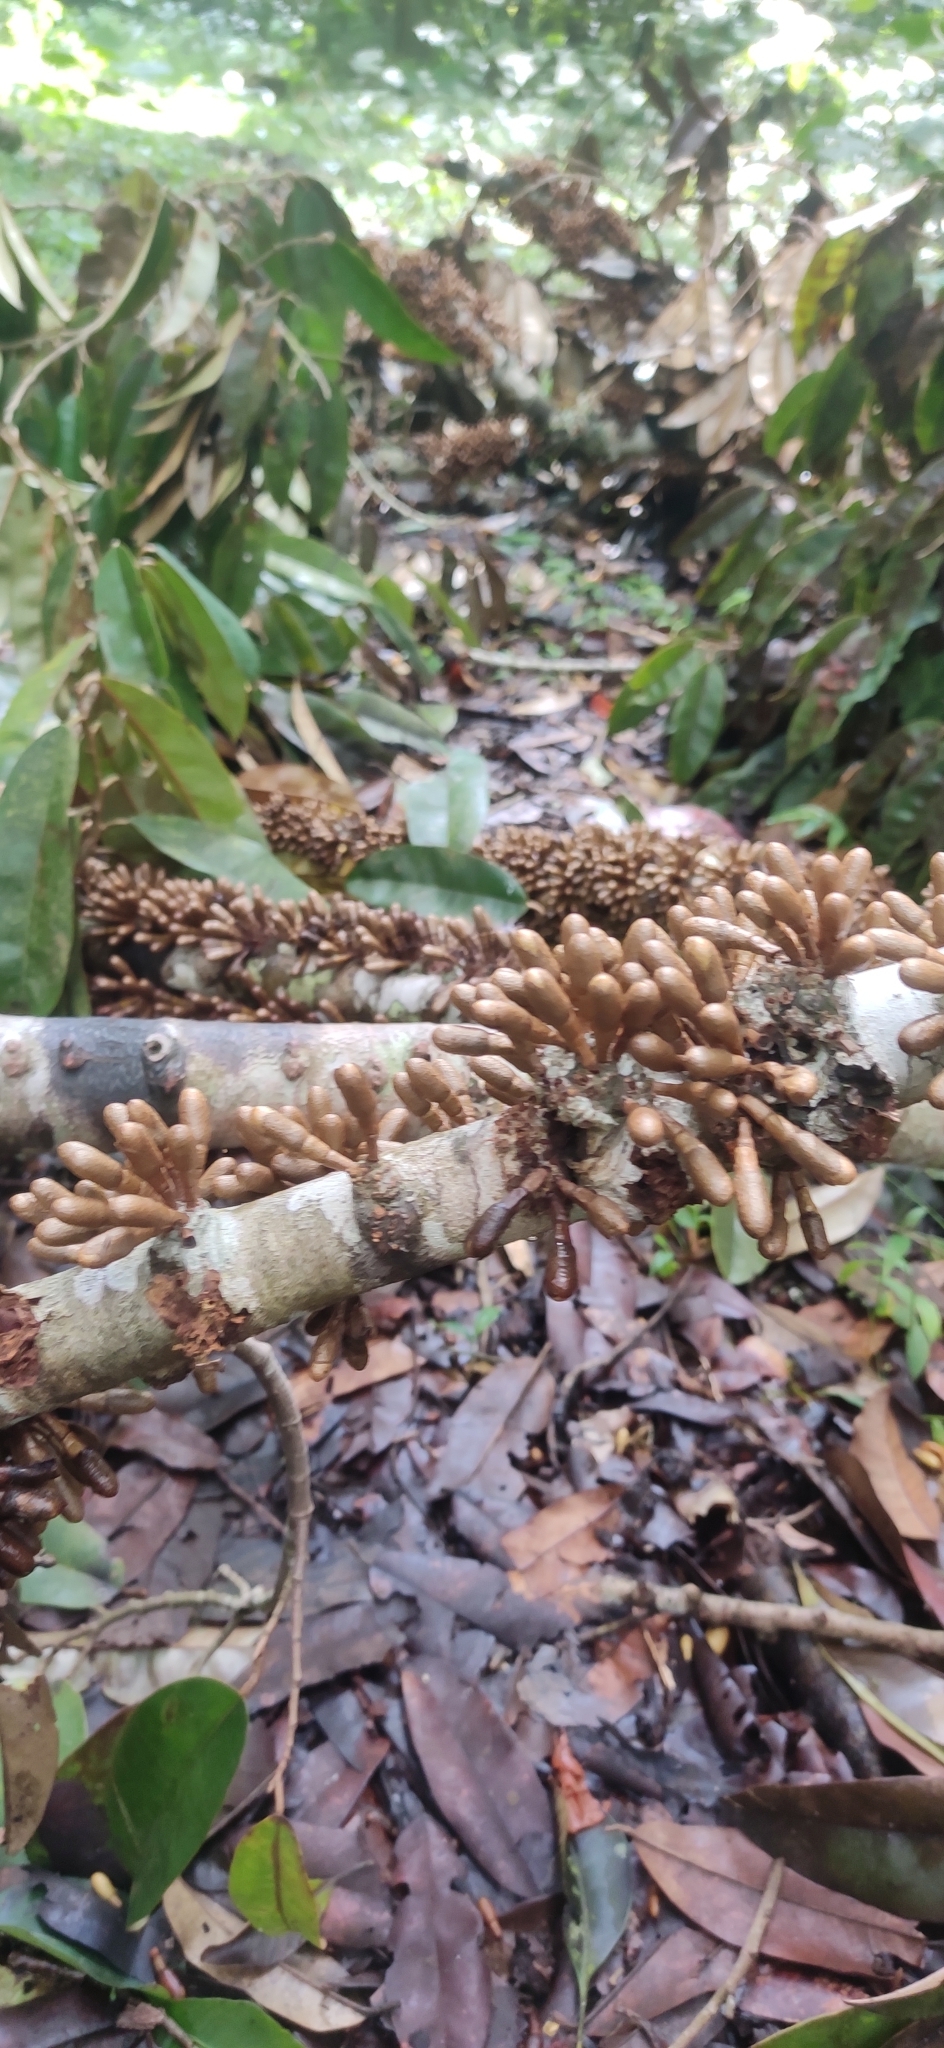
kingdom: Plantae
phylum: Tracheophyta
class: Magnoliopsida
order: Malvales
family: Malvaceae
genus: Cullenia
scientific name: Cullenia exarillata
